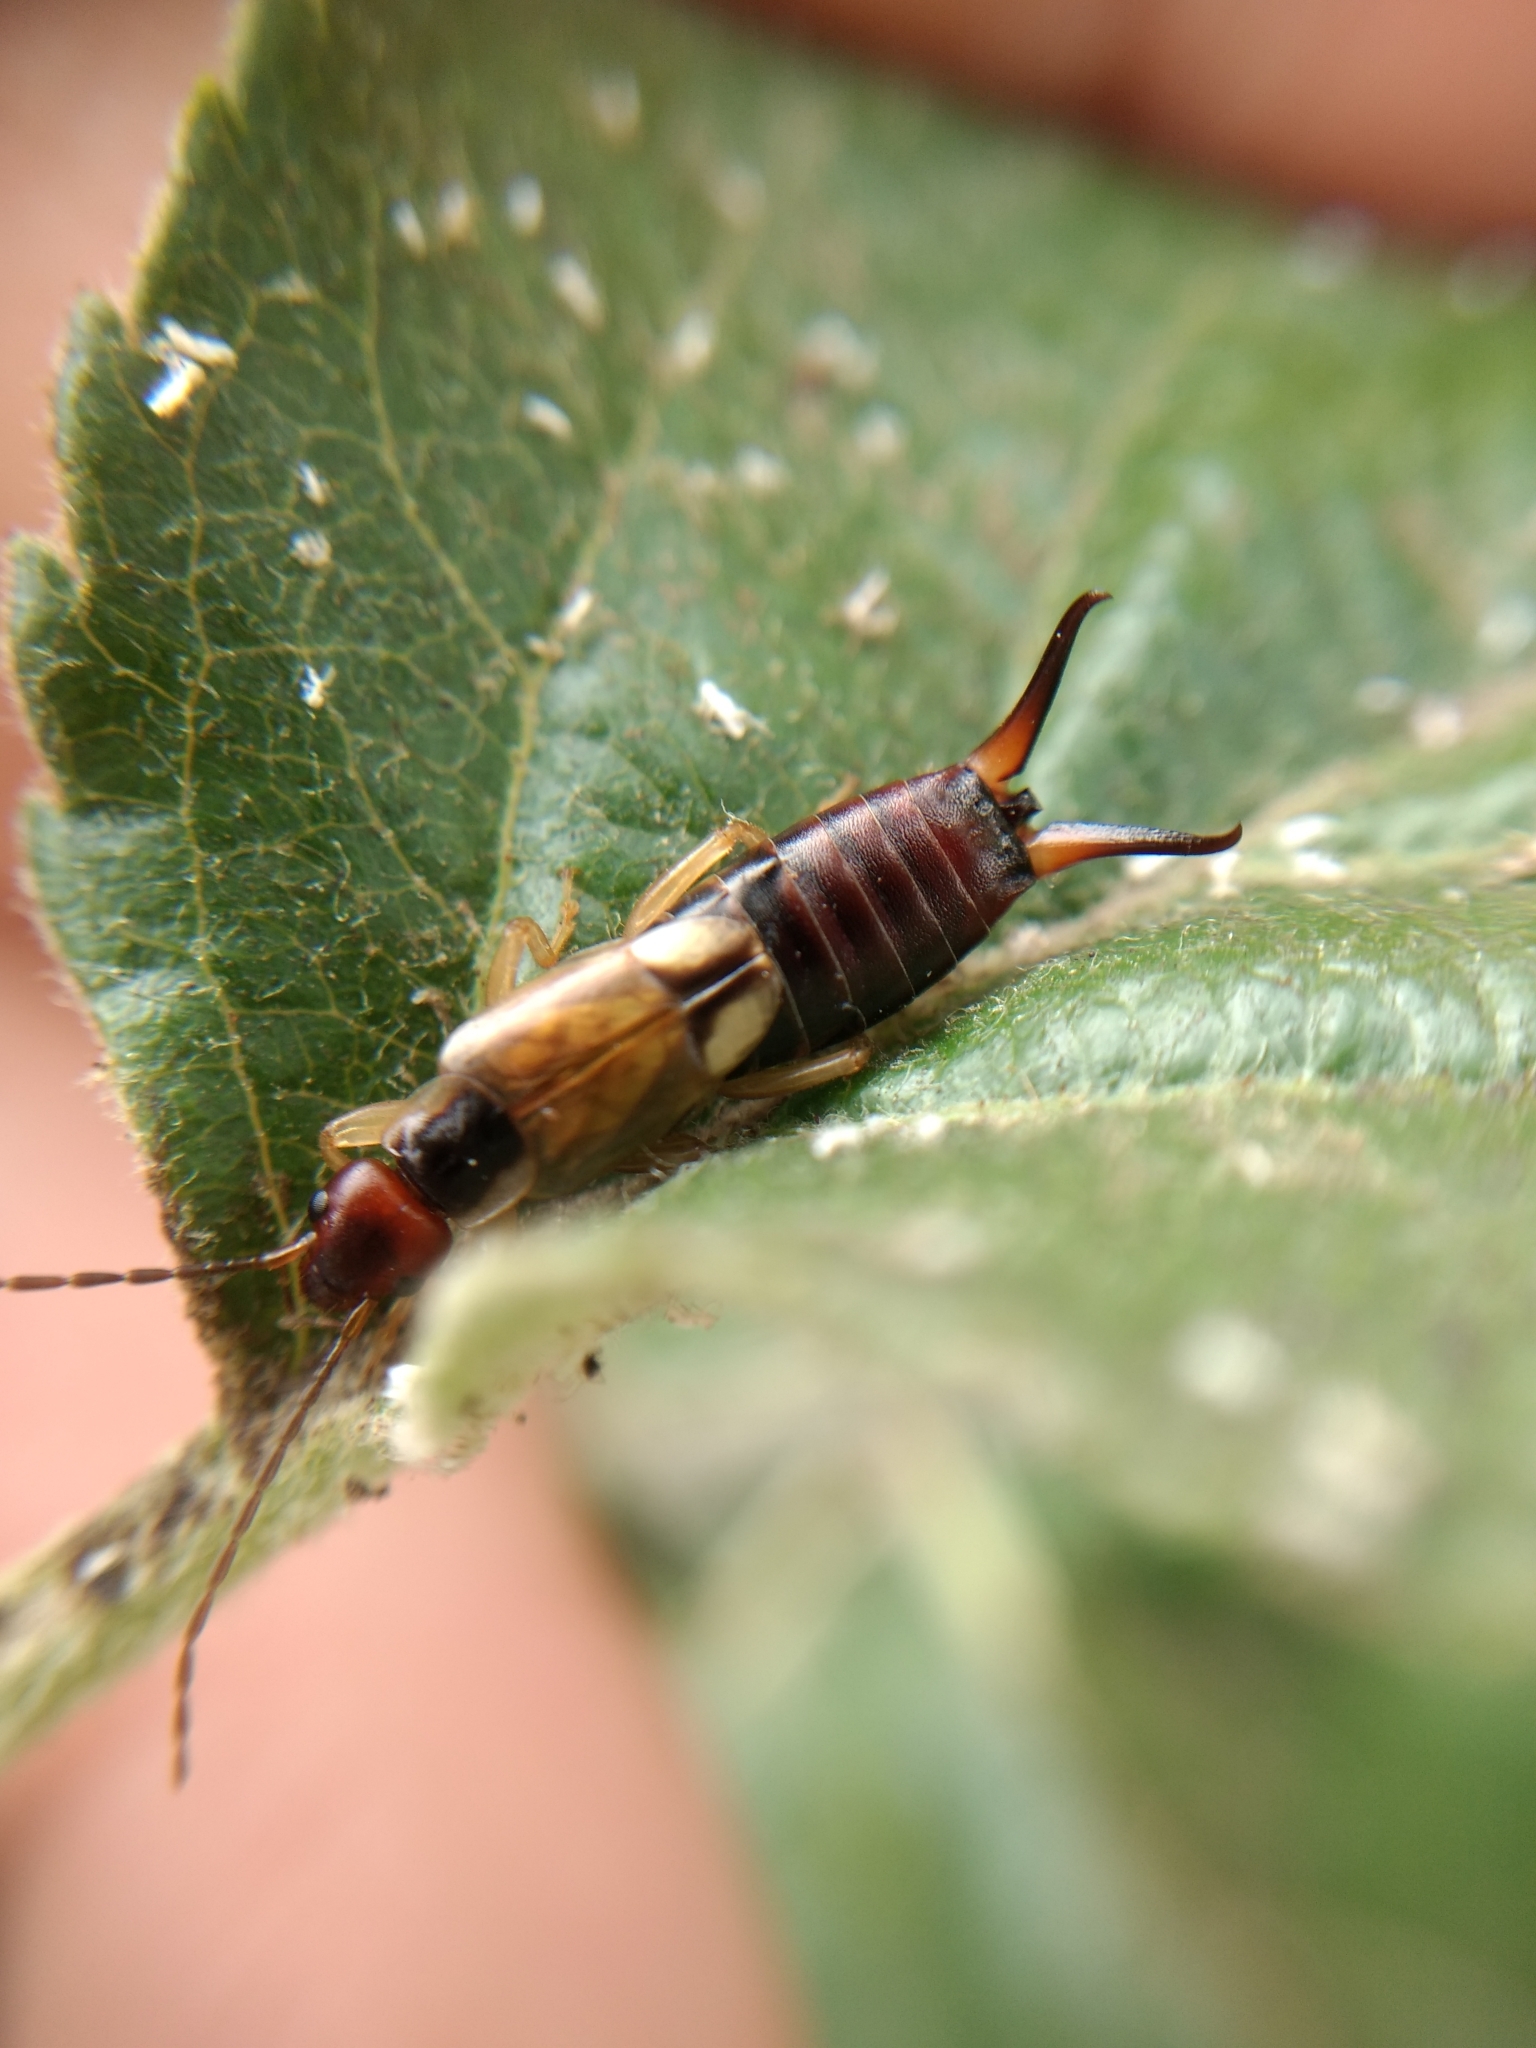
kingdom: Animalia
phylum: Arthropoda
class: Insecta
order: Dermaptera
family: Forficulidae
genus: Forficula
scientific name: Forficula
